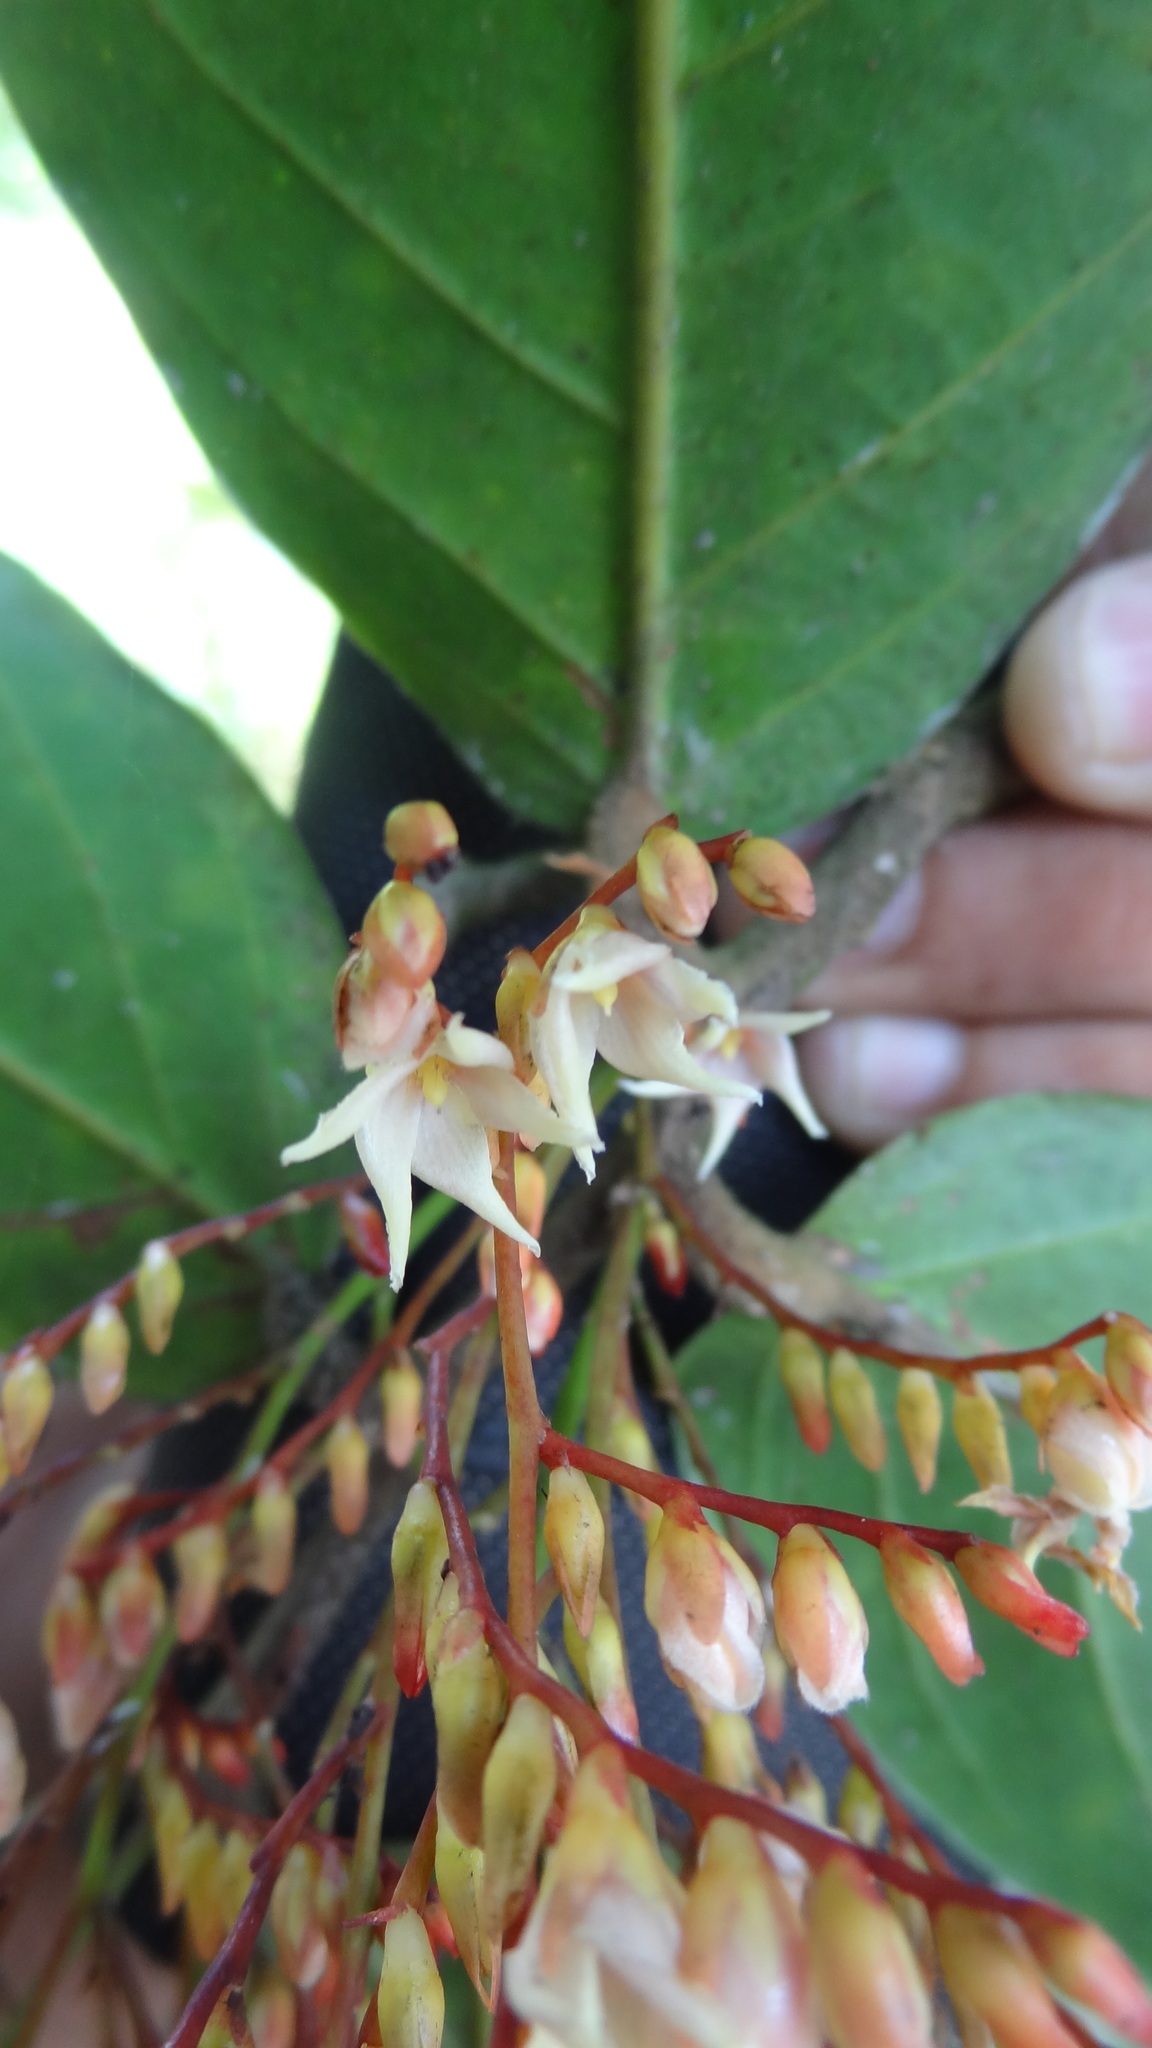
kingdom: Plantae
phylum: Tracheophyta
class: Magnoliopsida
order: Malvales
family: Dipterocarpaceae
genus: Hopea
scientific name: Hopea ponga
